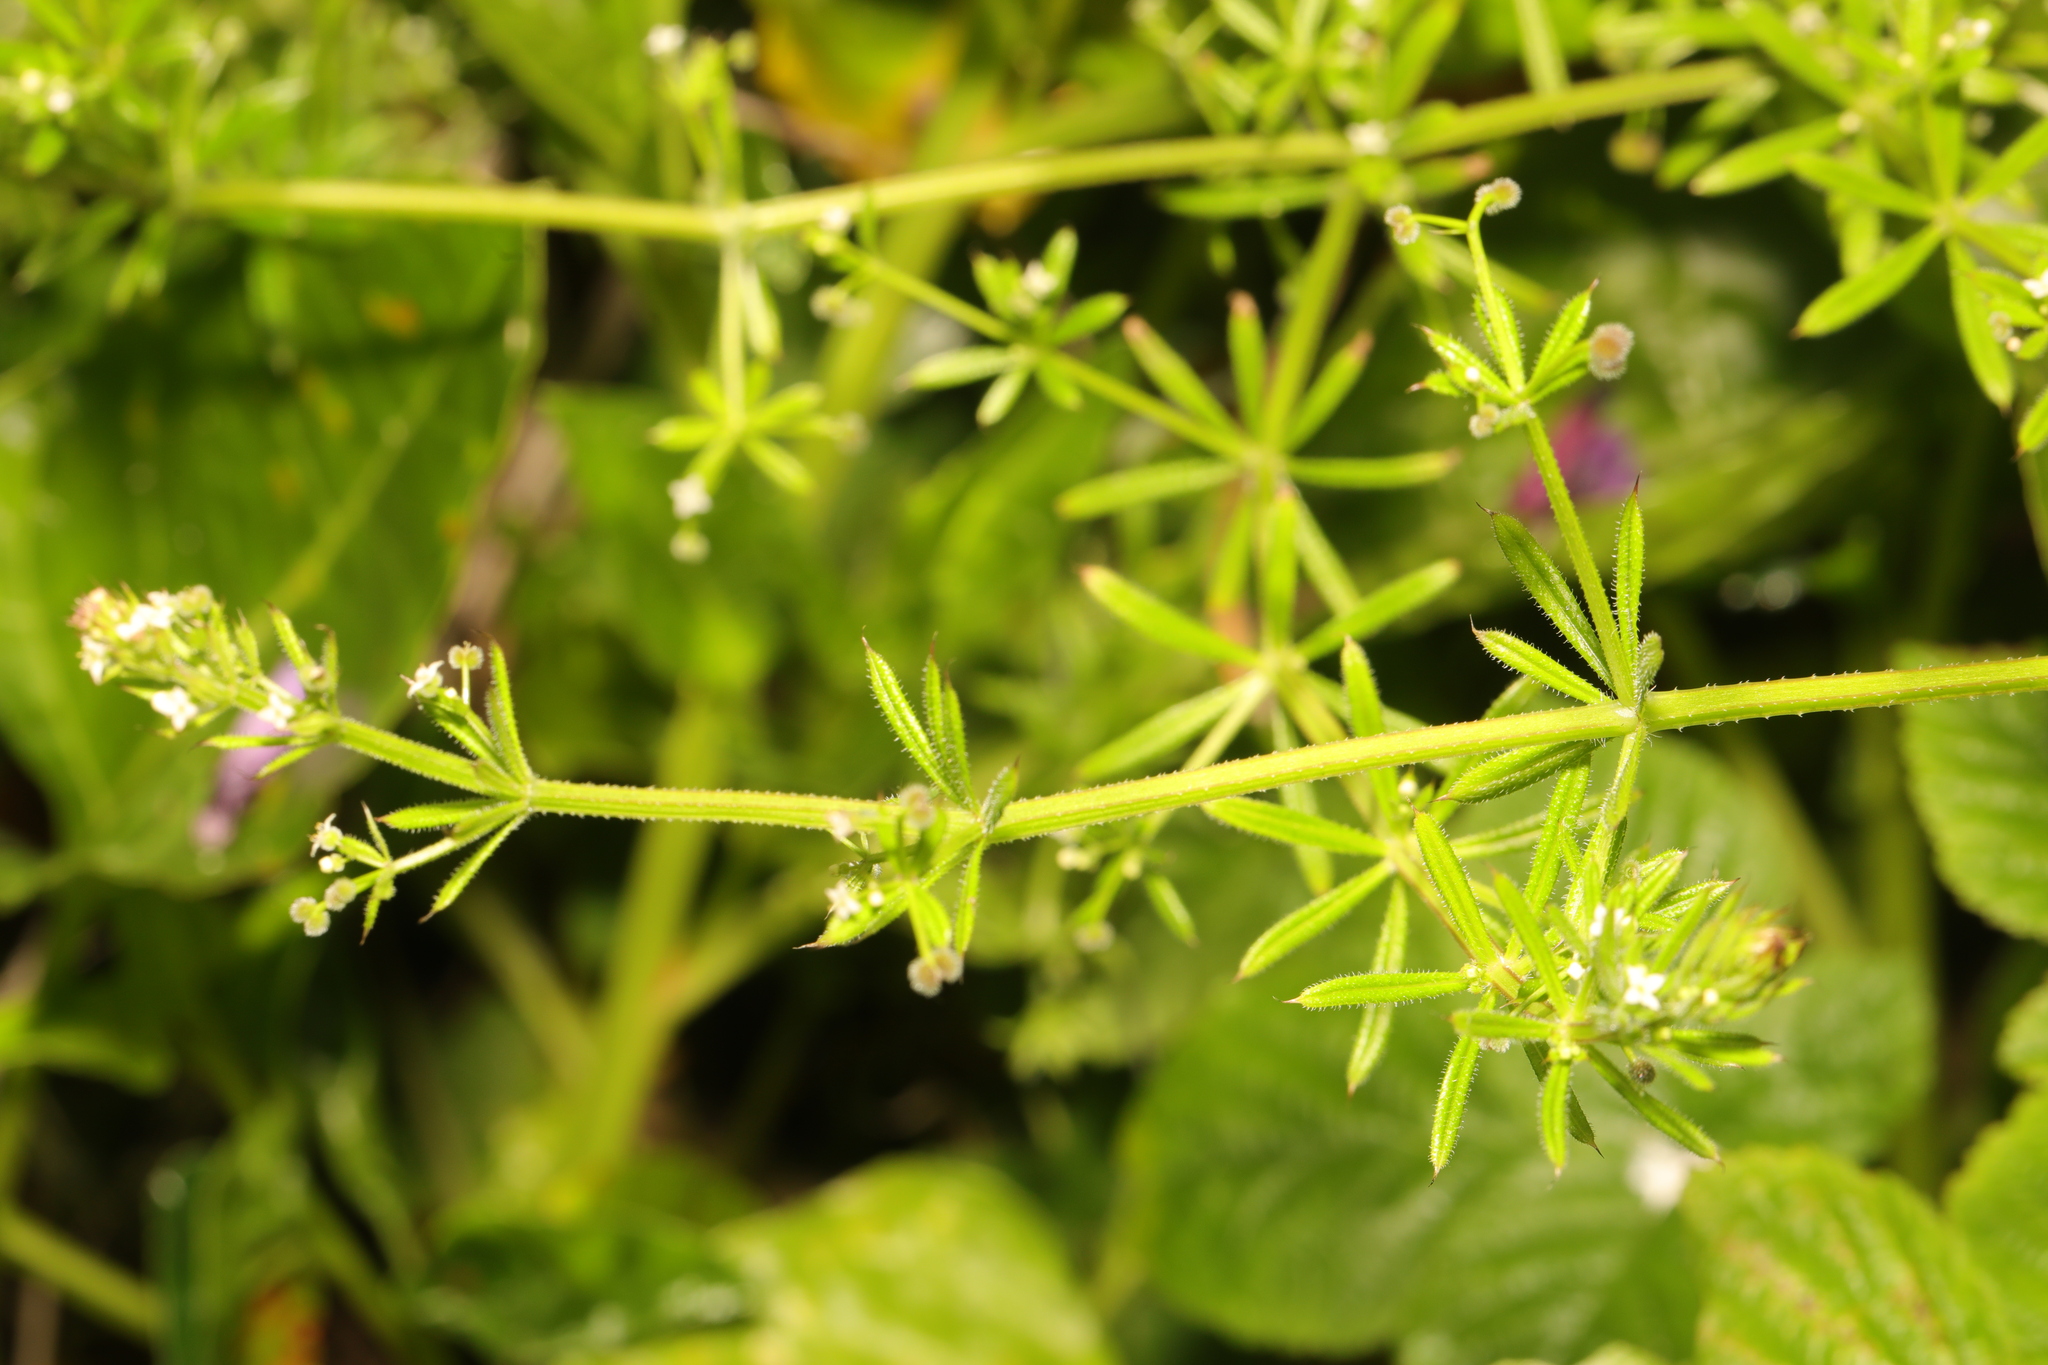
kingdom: Plantae
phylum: Tracheophyta
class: Magnoliopsida
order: Gentianales
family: Rubiaceae
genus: Galium
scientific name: Galium aparine
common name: Cleavers
